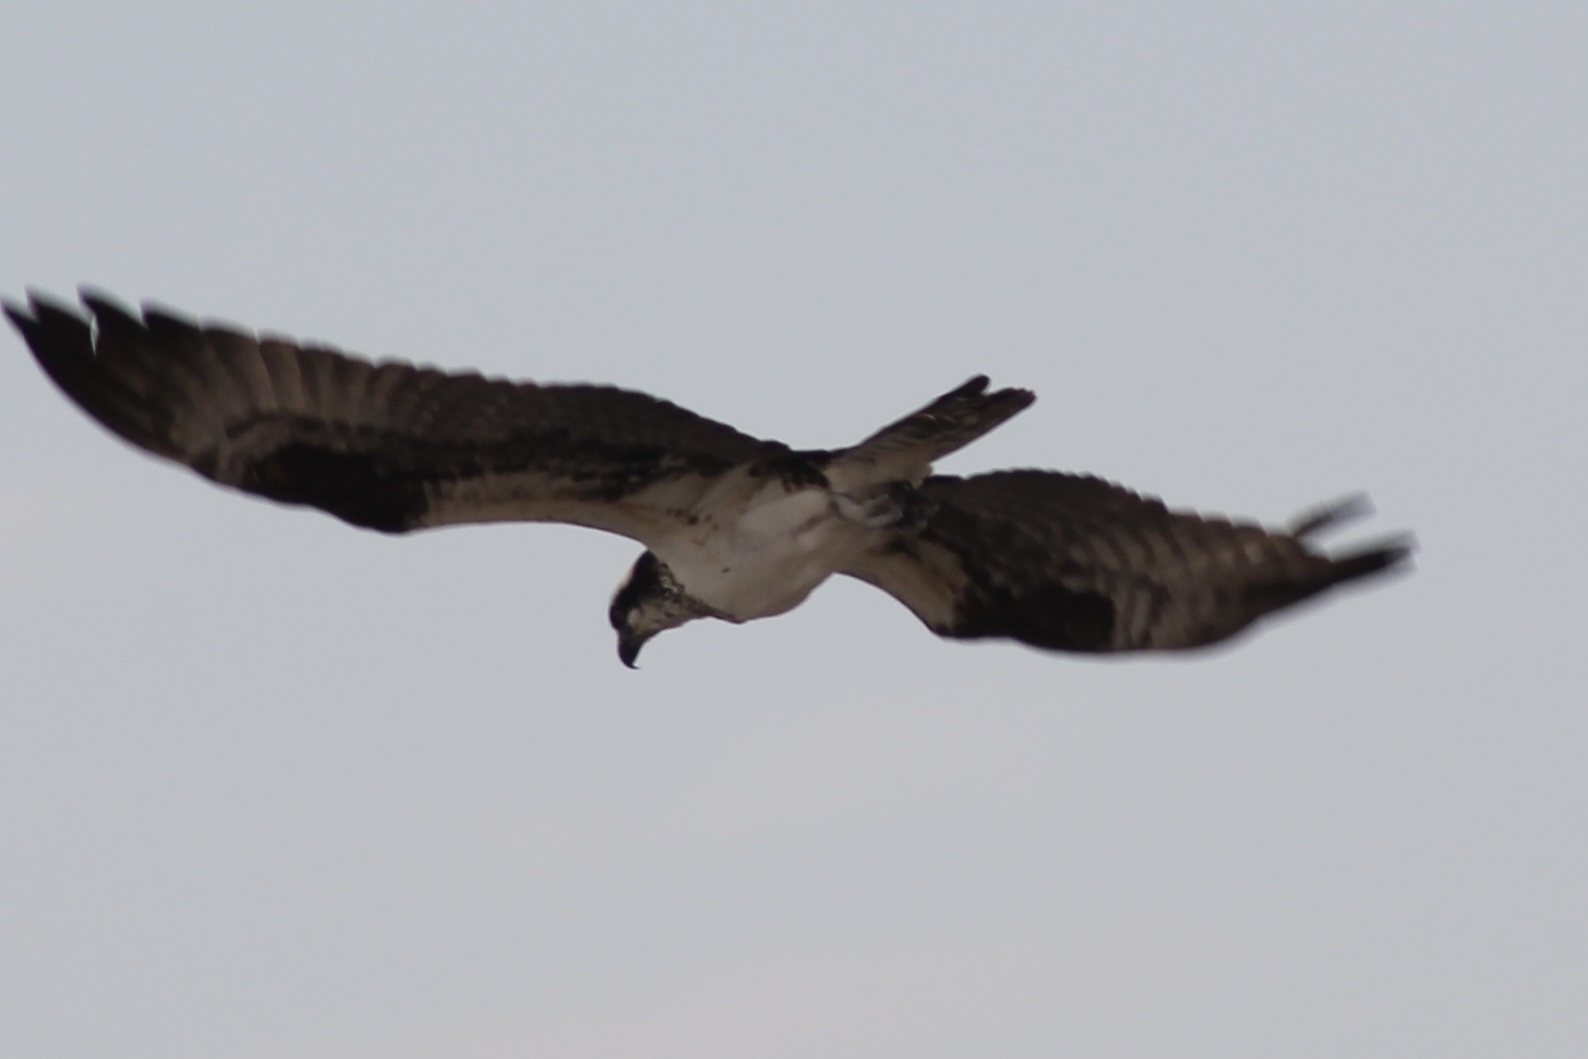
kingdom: Animalia
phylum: Chordata
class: Aves
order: Accipitriformes
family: Pandionidae
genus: Pandion
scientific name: Pandion haliaetus
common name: Osprey
